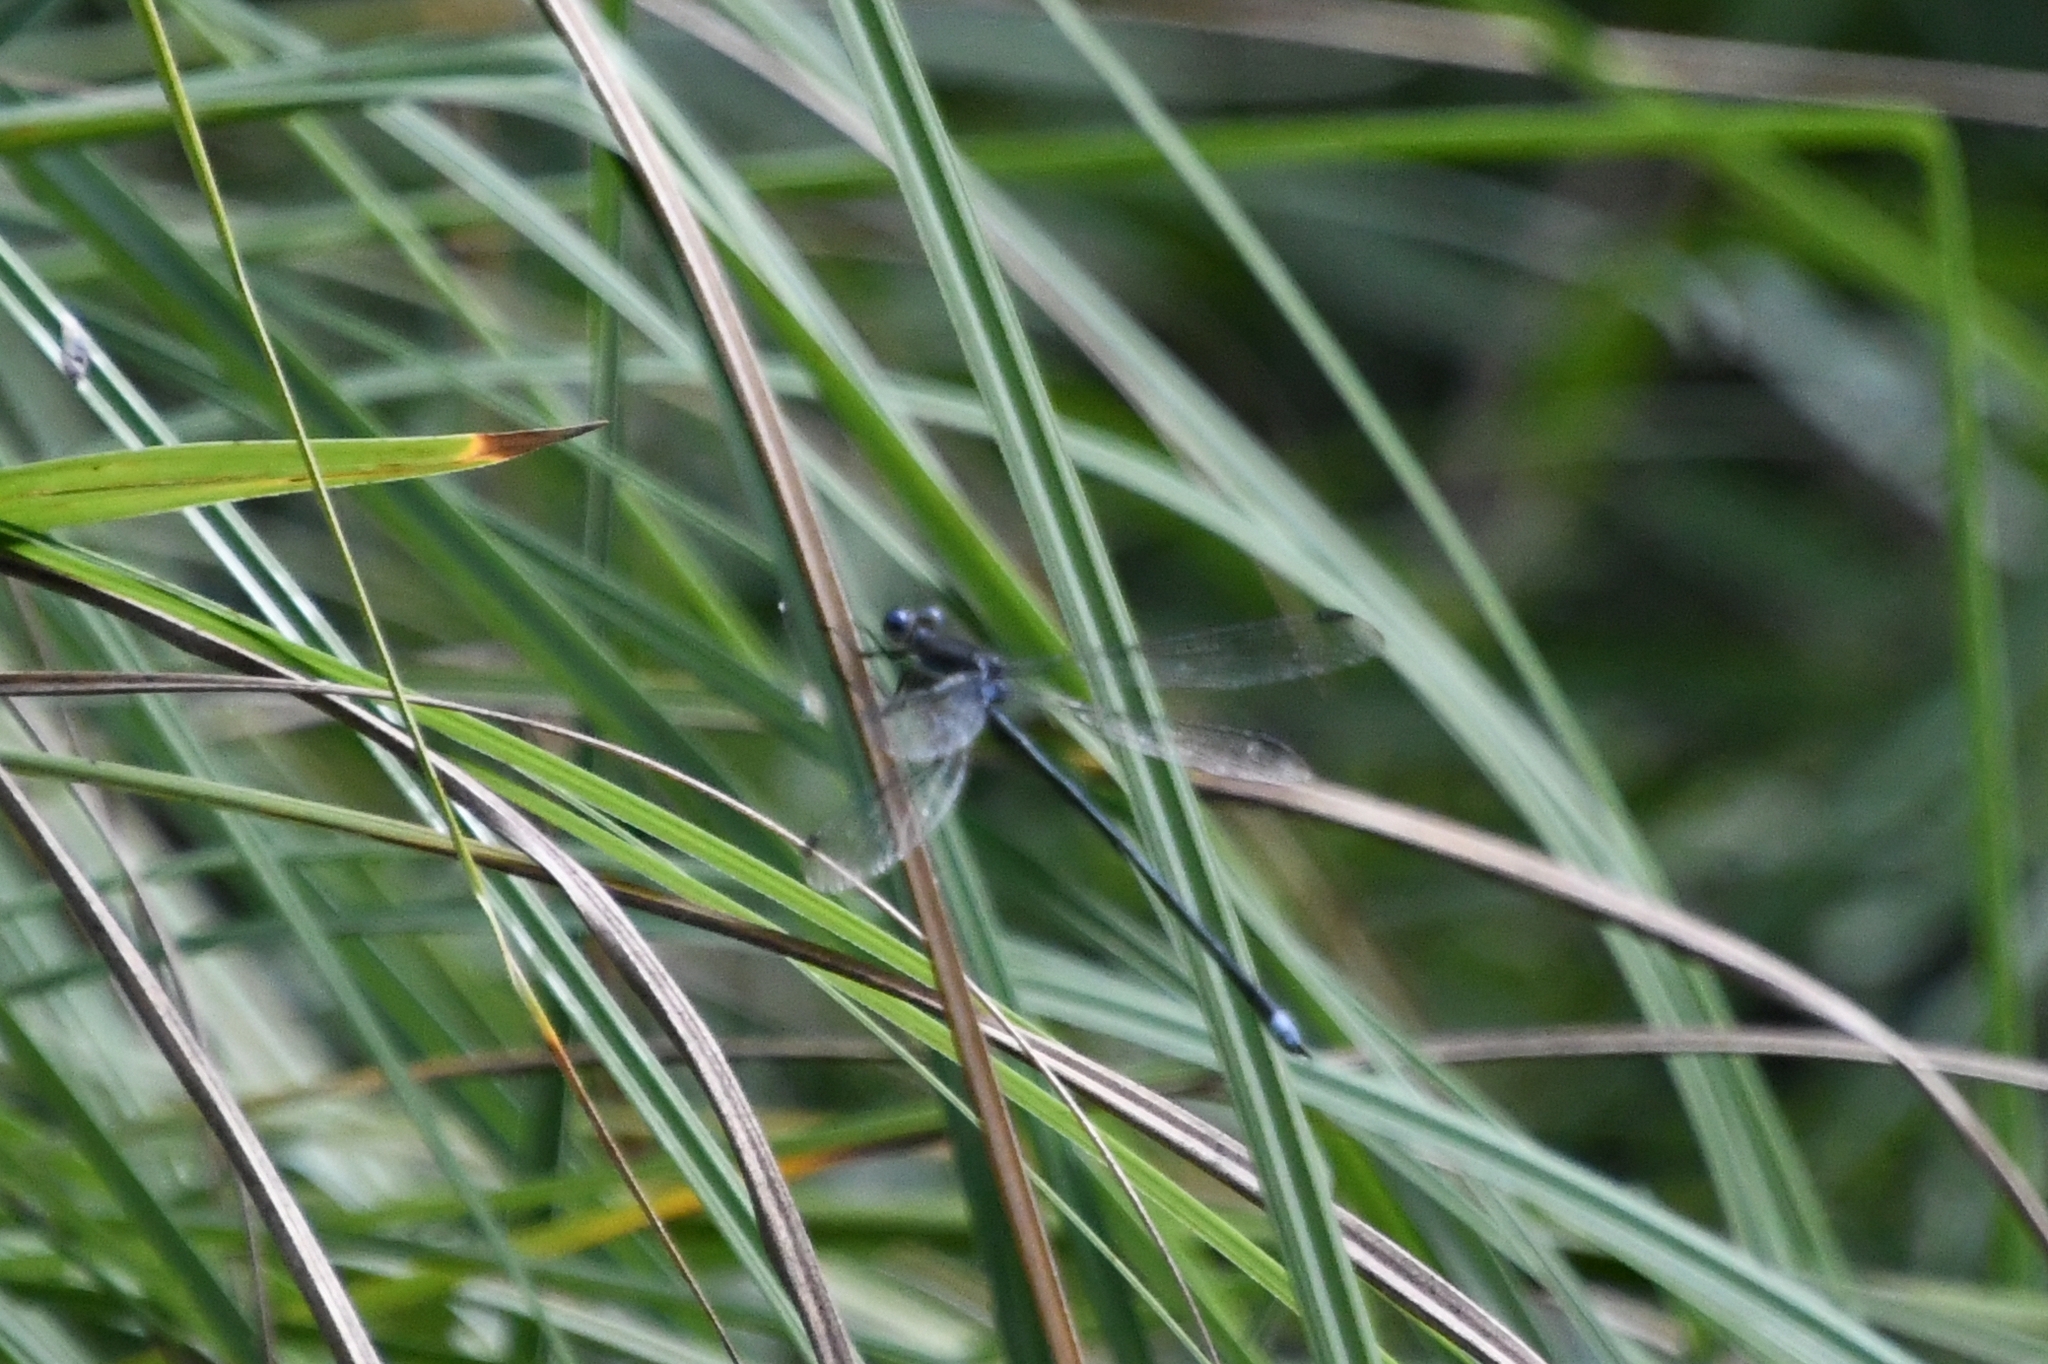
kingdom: Animalia
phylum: Arthropoda
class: Insecta
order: Odonata
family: Lestidae
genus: Archilestes
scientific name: Archilestes grandis
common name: Great spreadwing
